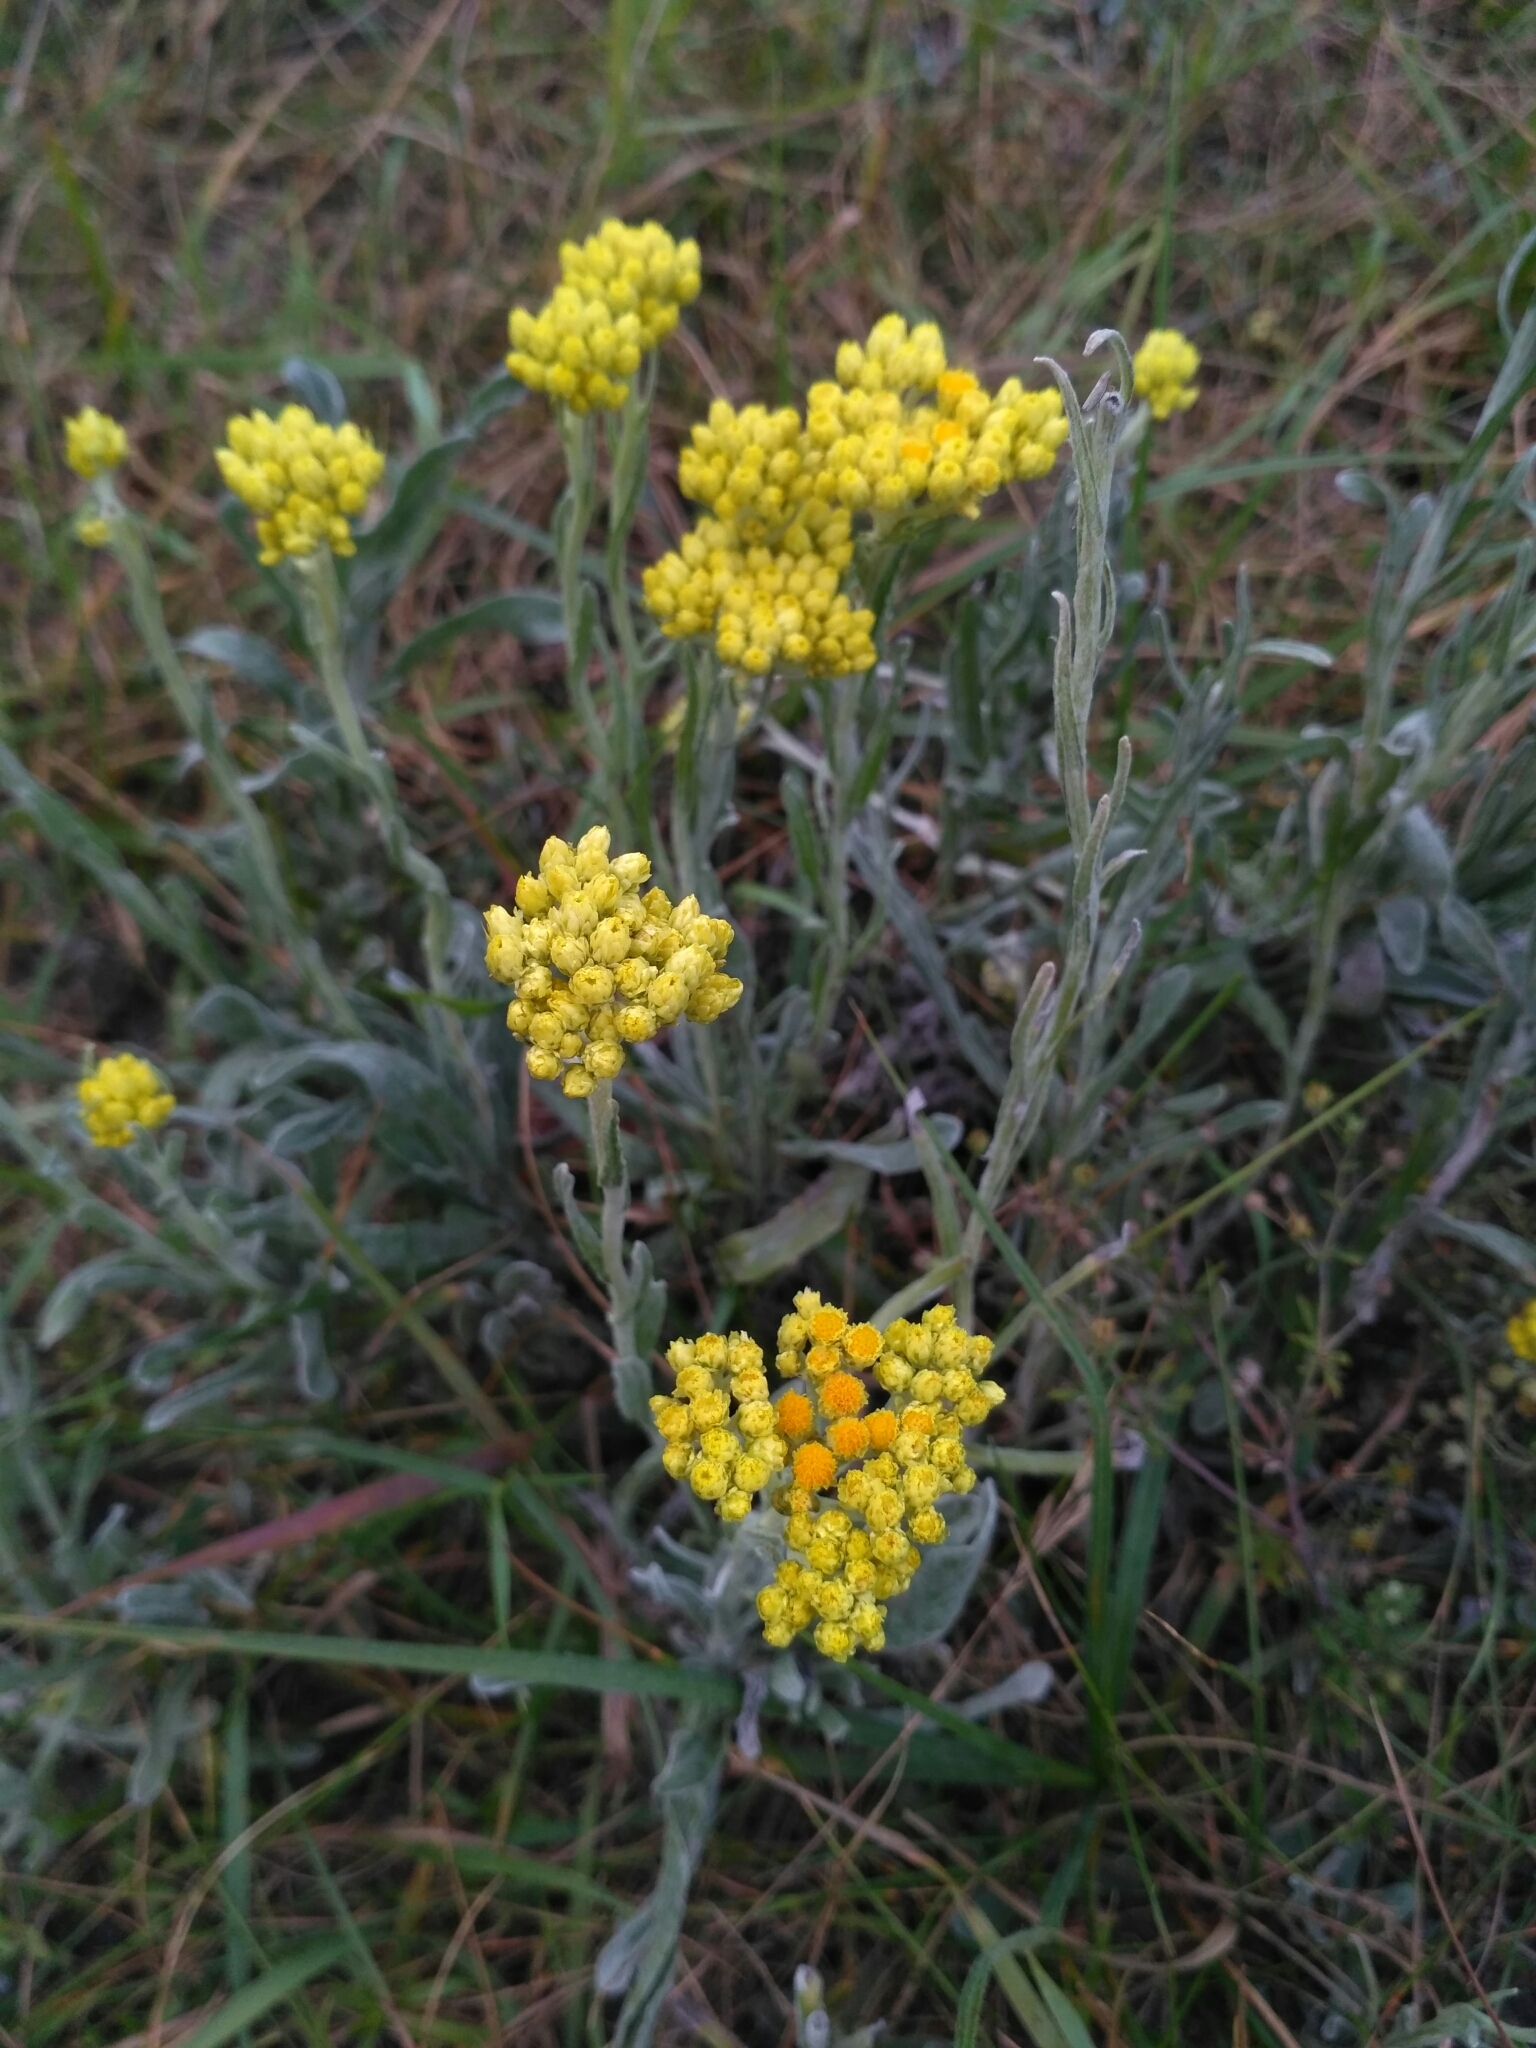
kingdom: Plantae
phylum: Tracheophyta
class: Magnoliopsida
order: Asterales
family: Asteraceae
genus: Helichrysum
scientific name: Helichrysum arenarium
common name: Strawflower
